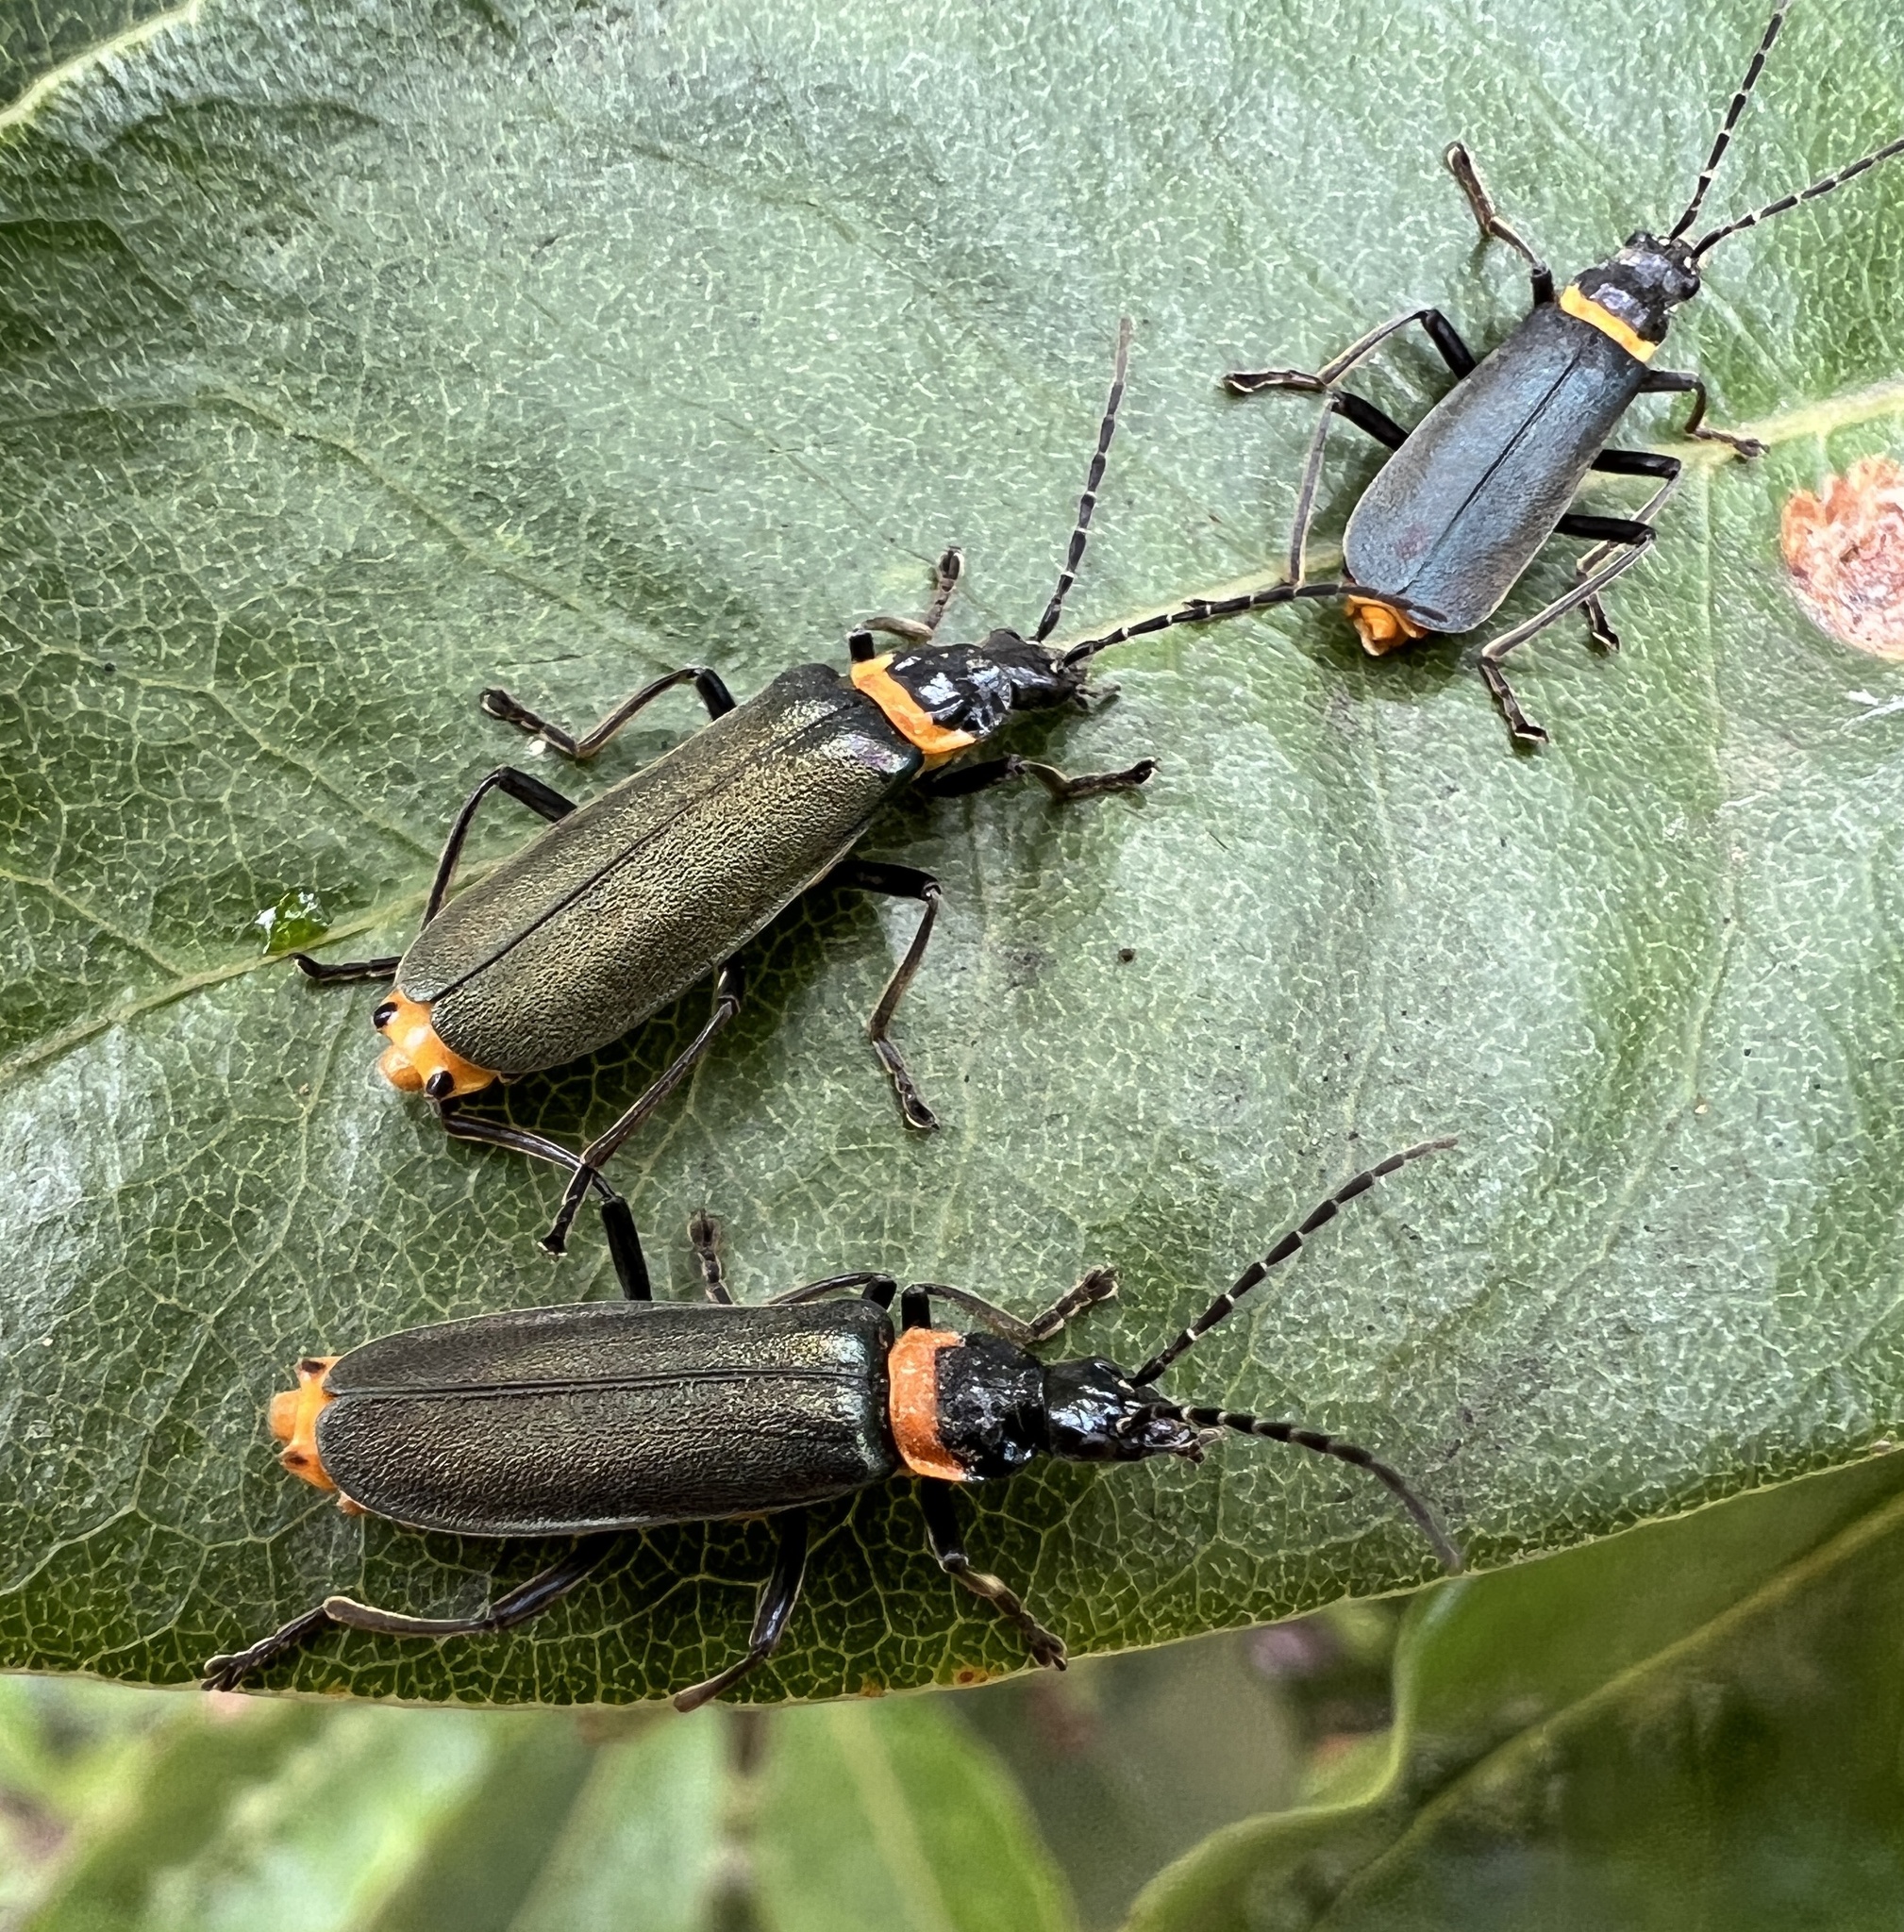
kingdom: Animalia
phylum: Arthropoda
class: Insecta
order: Coleoptera
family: Cantharidae
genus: Chauliognathus
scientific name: Chauliognathus
